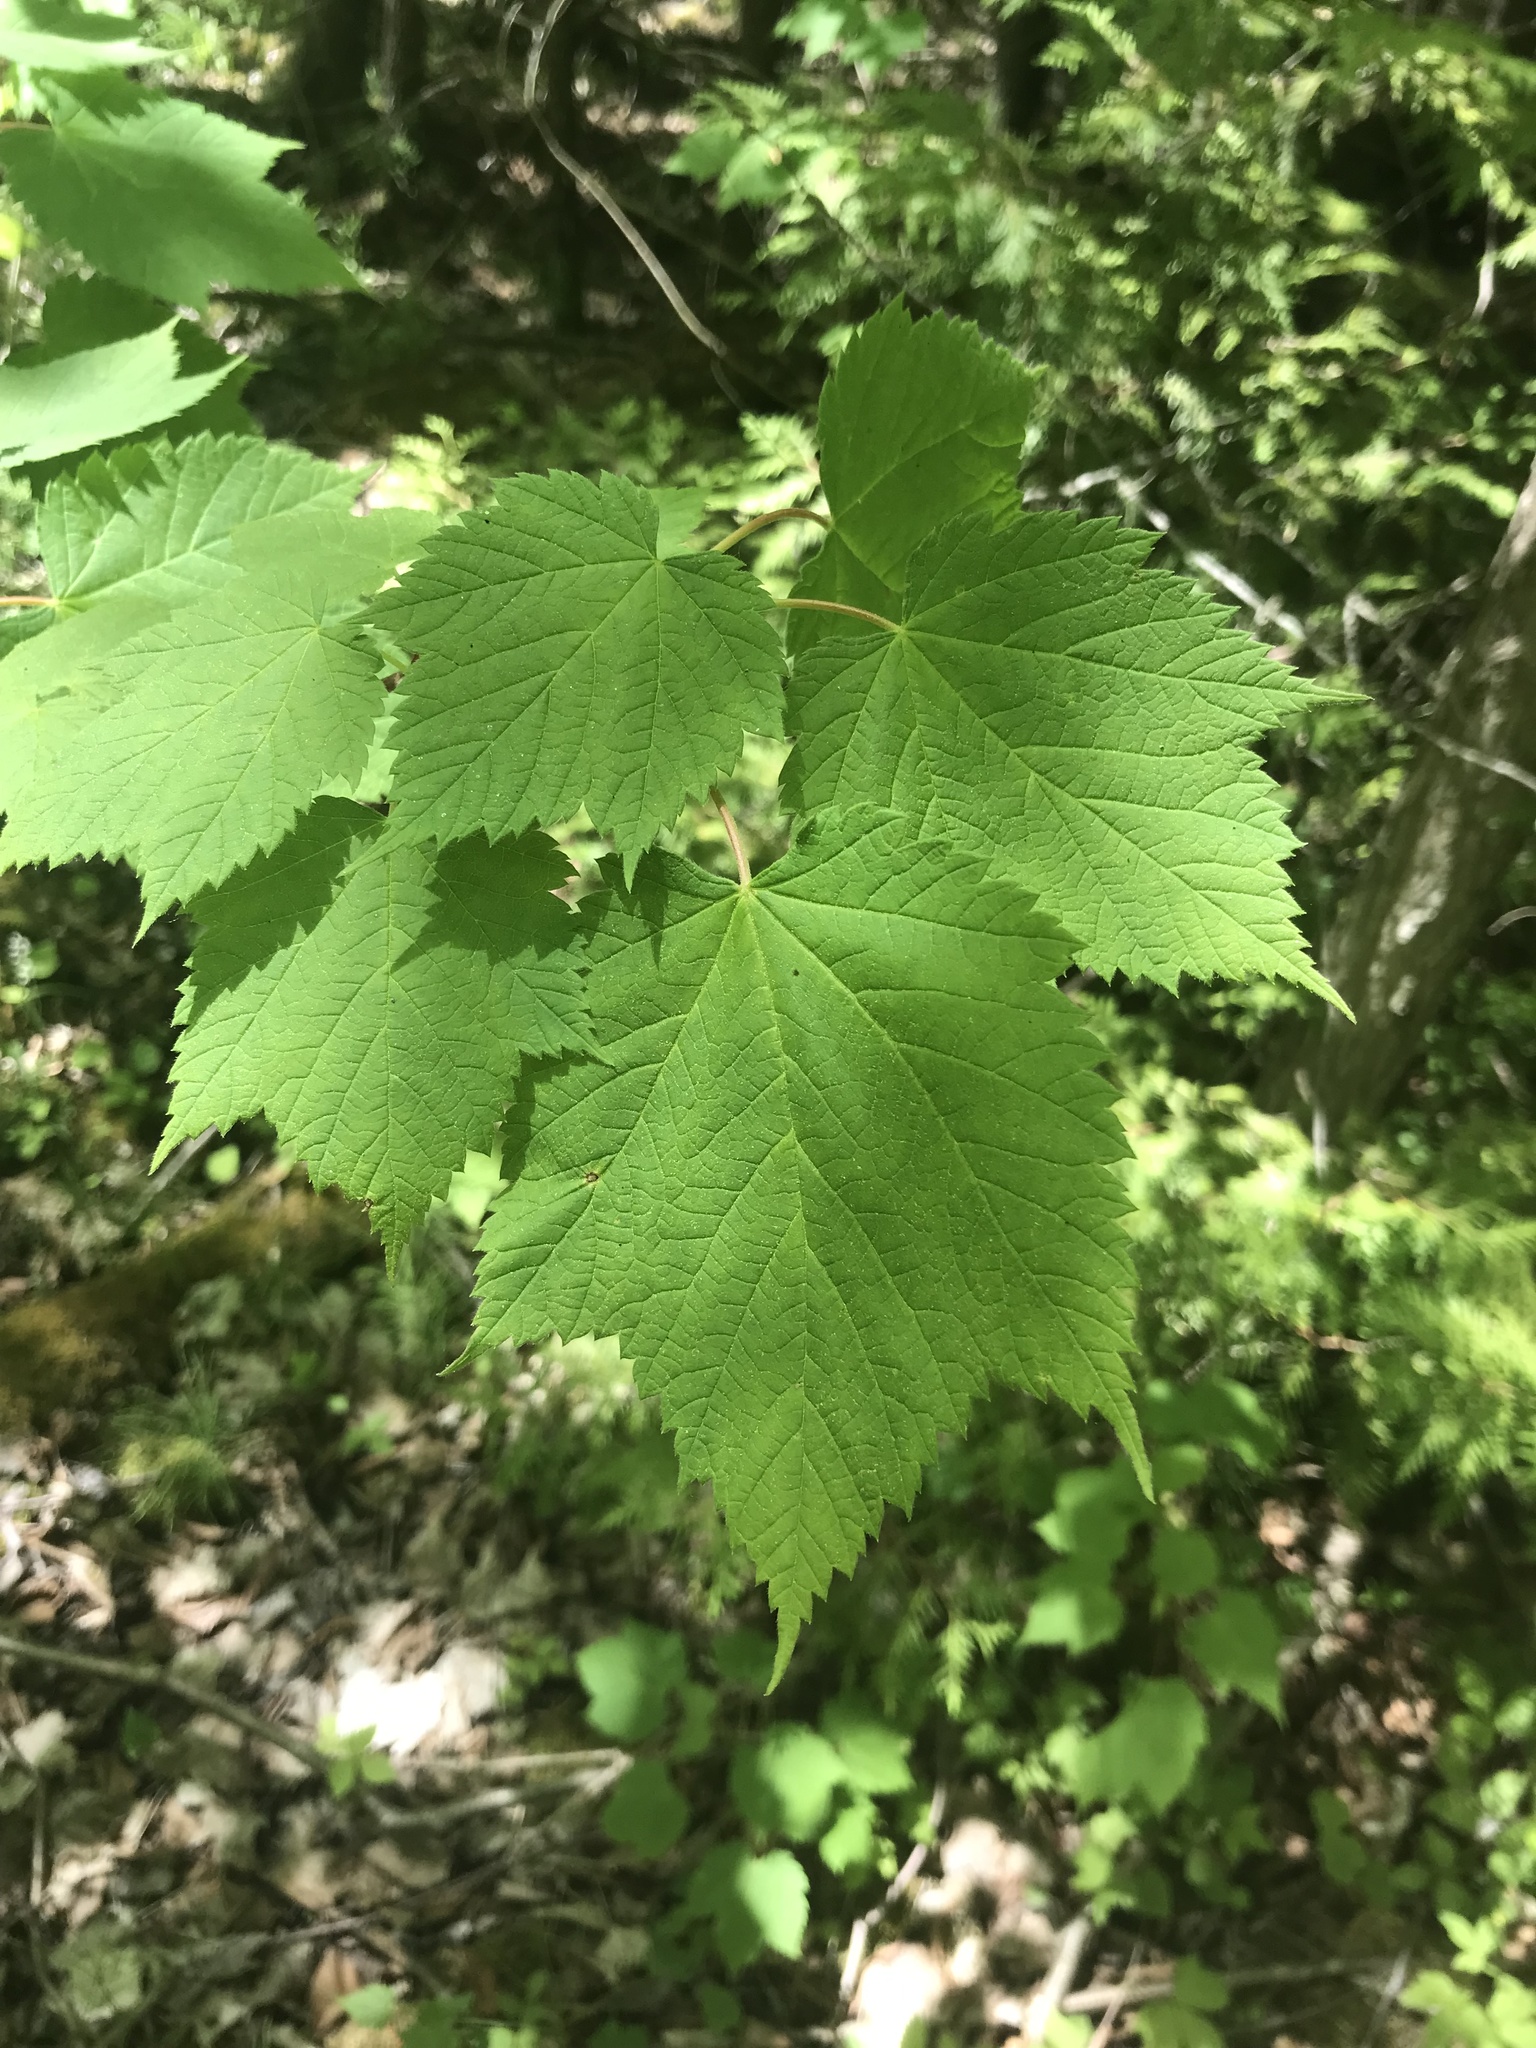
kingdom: Plantae
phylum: Tracheophyta
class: Magnoliopsida
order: Sapindales
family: Sapindaceae
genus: Acer
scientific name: Acer spicatum
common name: Mountain maple
